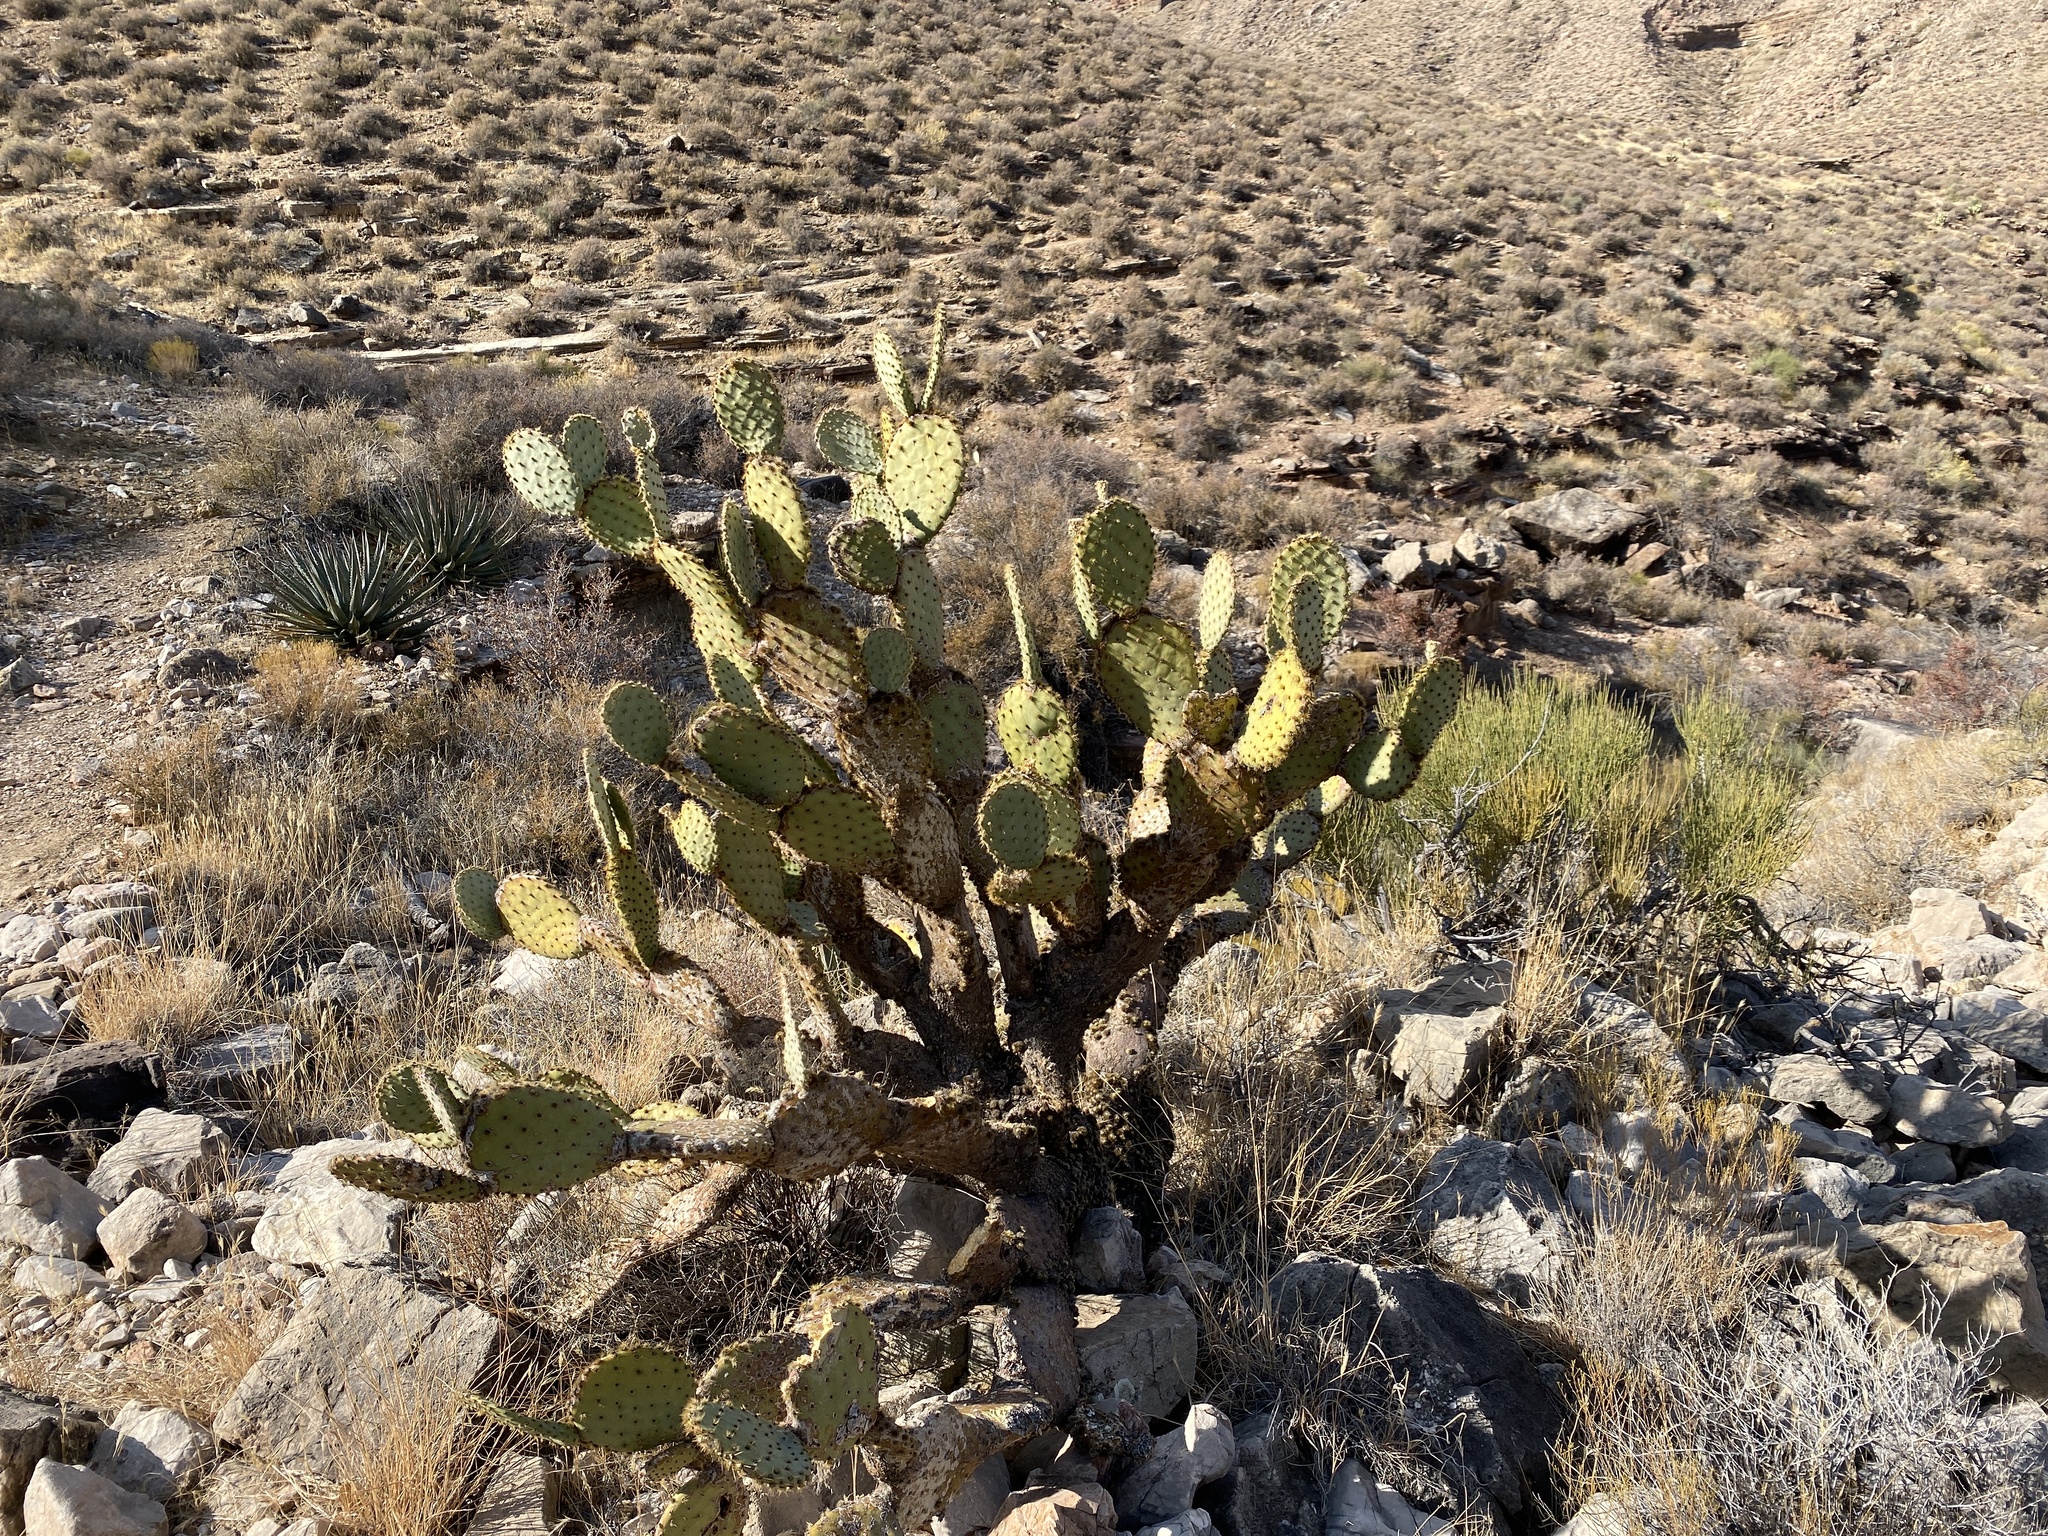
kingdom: Plantae
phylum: Tracheophyta
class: Magnoliopsida
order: Caryophyllales
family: Cactaceae
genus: Opuntia
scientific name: Opuntia chlorotica
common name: Dollar-joint prickly-pear
